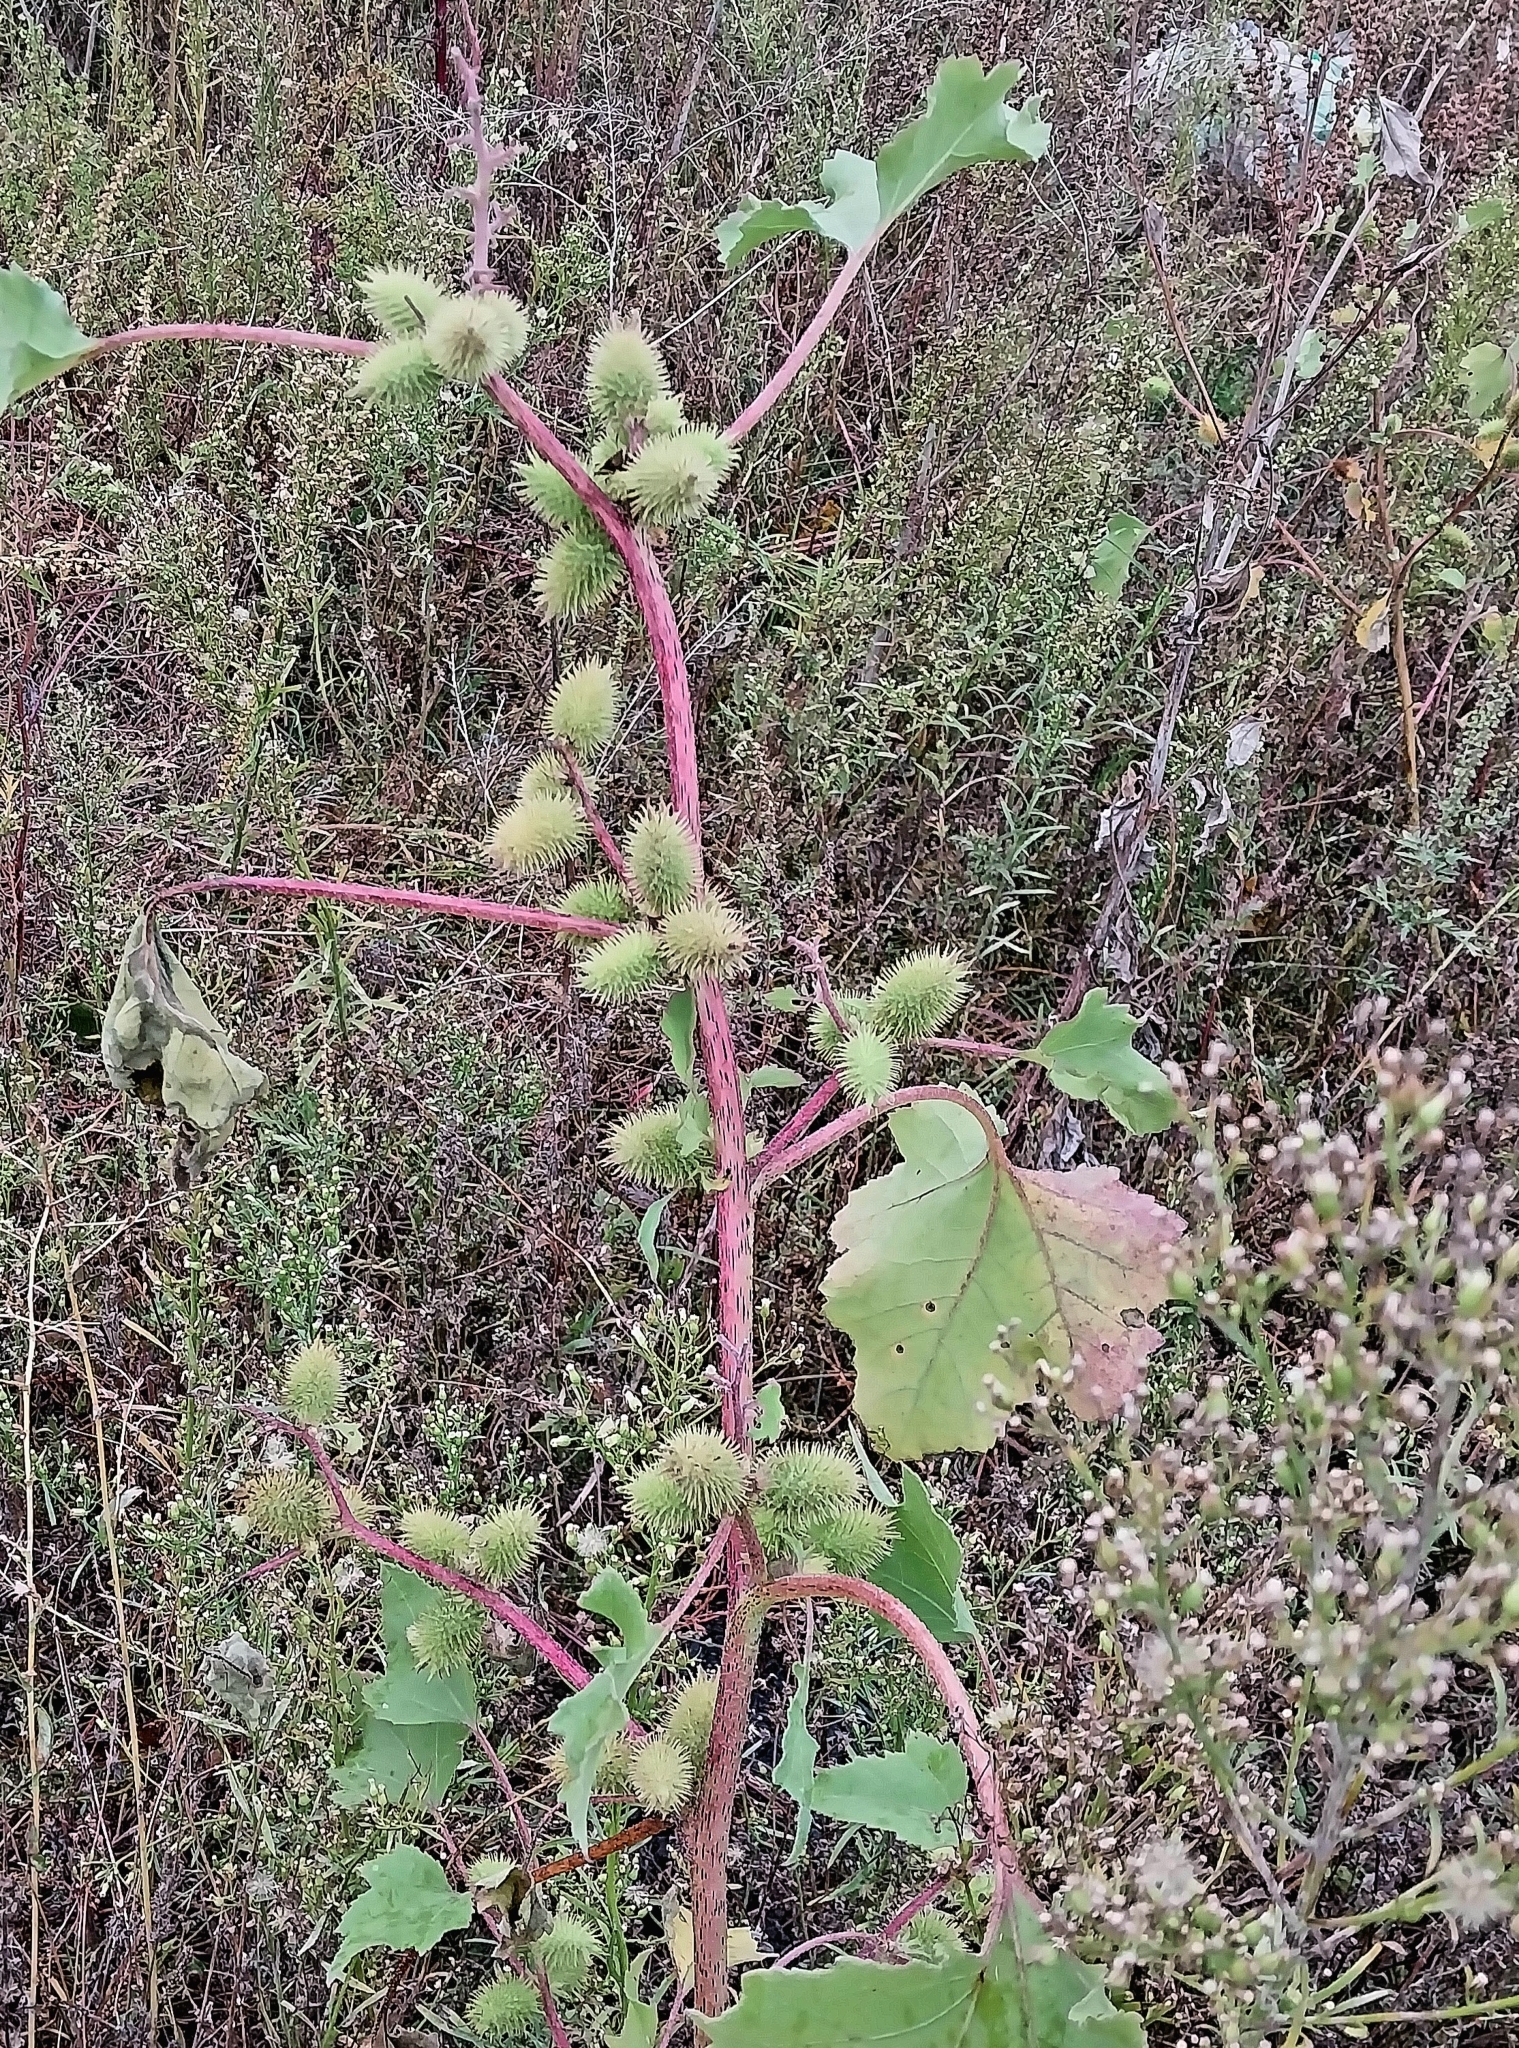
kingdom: Plantae
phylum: Tracheophyta
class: Magnoliopsida
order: Asterales
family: Asteraceae
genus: Xanthium
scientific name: Xanthium orientale
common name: Californian burr
